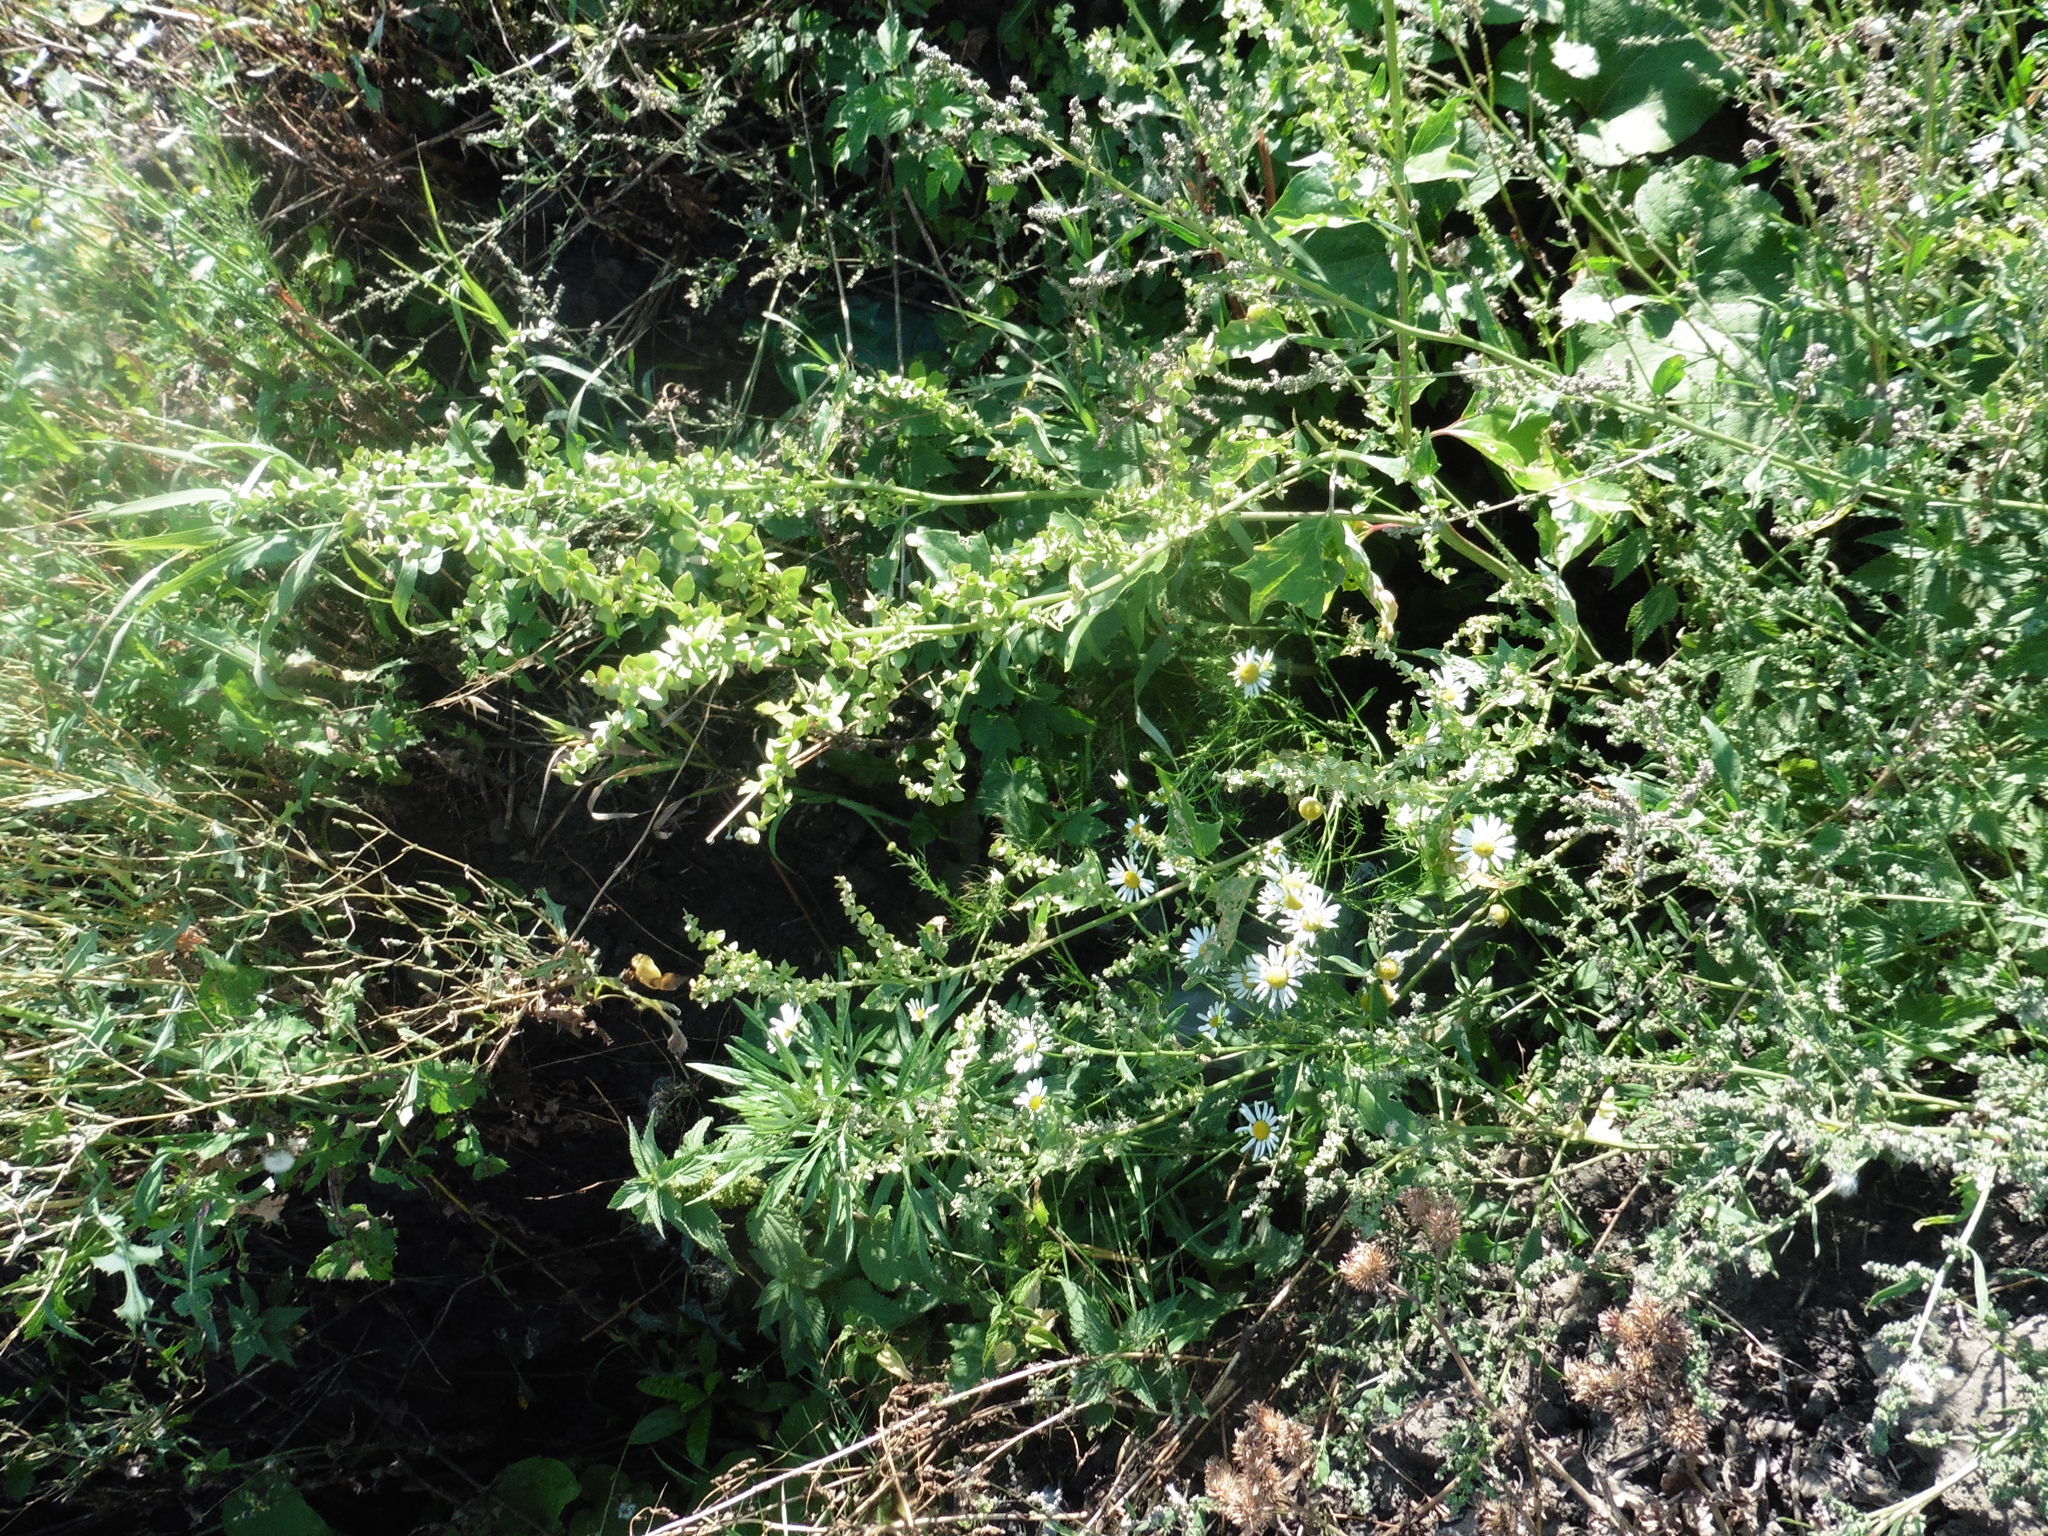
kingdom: Plantae
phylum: Tracheophyta
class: Magnoliopsida
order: Caryophyllales
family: Amaranthaceae
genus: Atriplex
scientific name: Atriplex sagittata
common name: Purple orache
